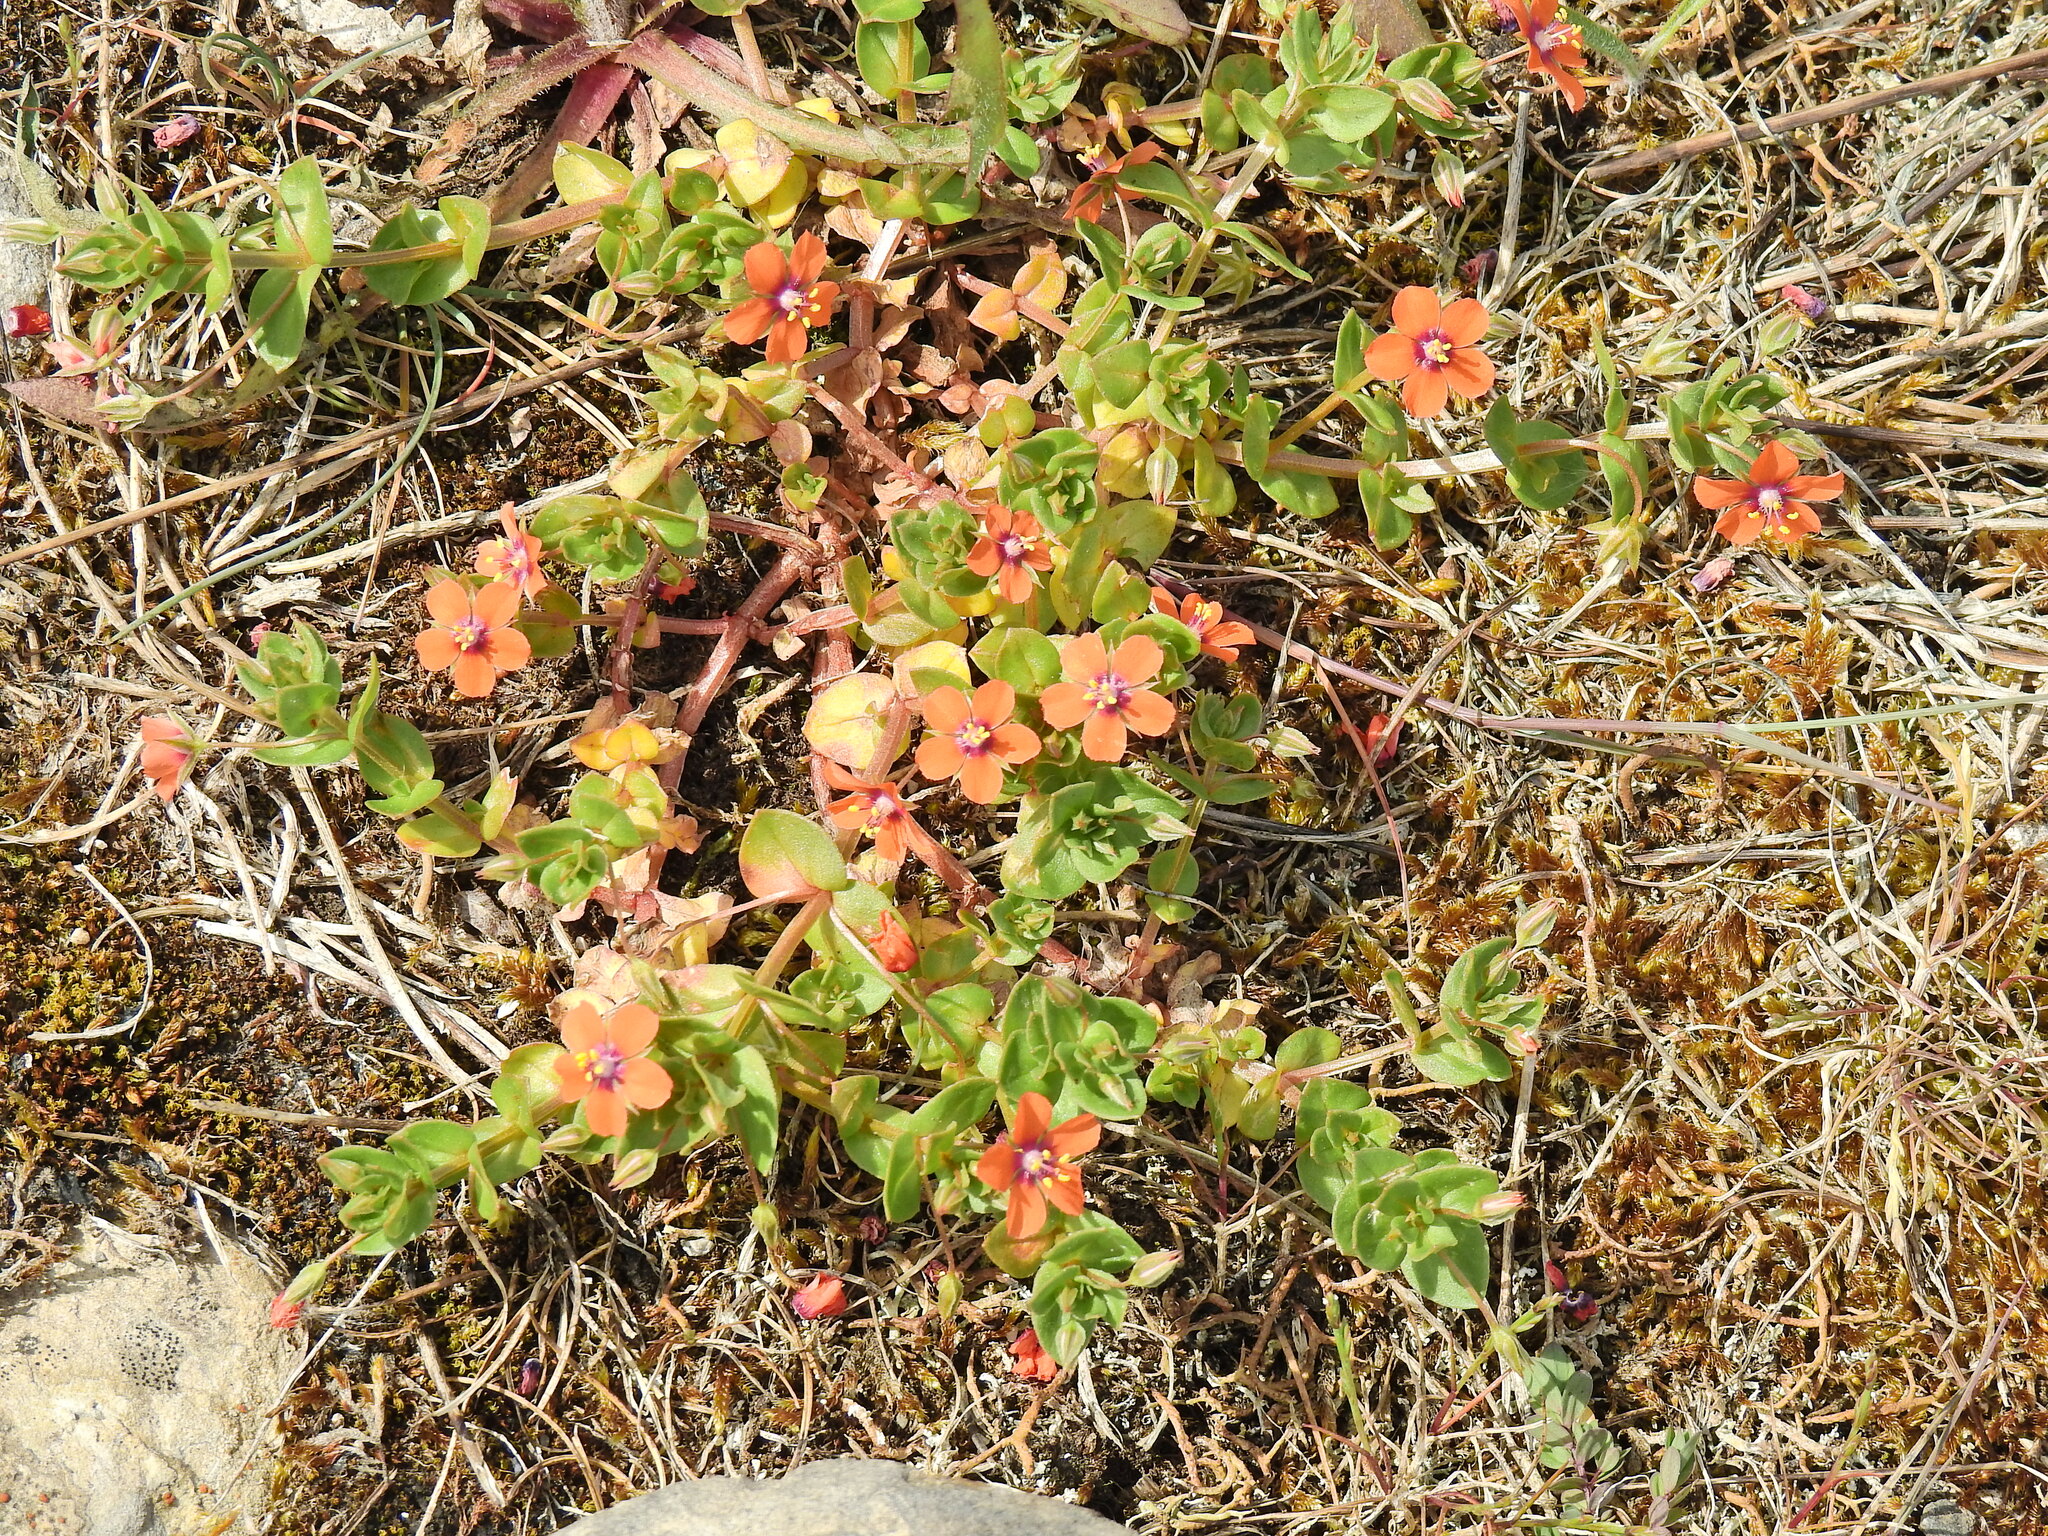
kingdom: Plantae
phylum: Tracheophyta
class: Magnoliopsida
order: Ericales
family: Primulaceae
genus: Lysimachia
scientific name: Lysimachia arvensis
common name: Scarlet pimpernel
